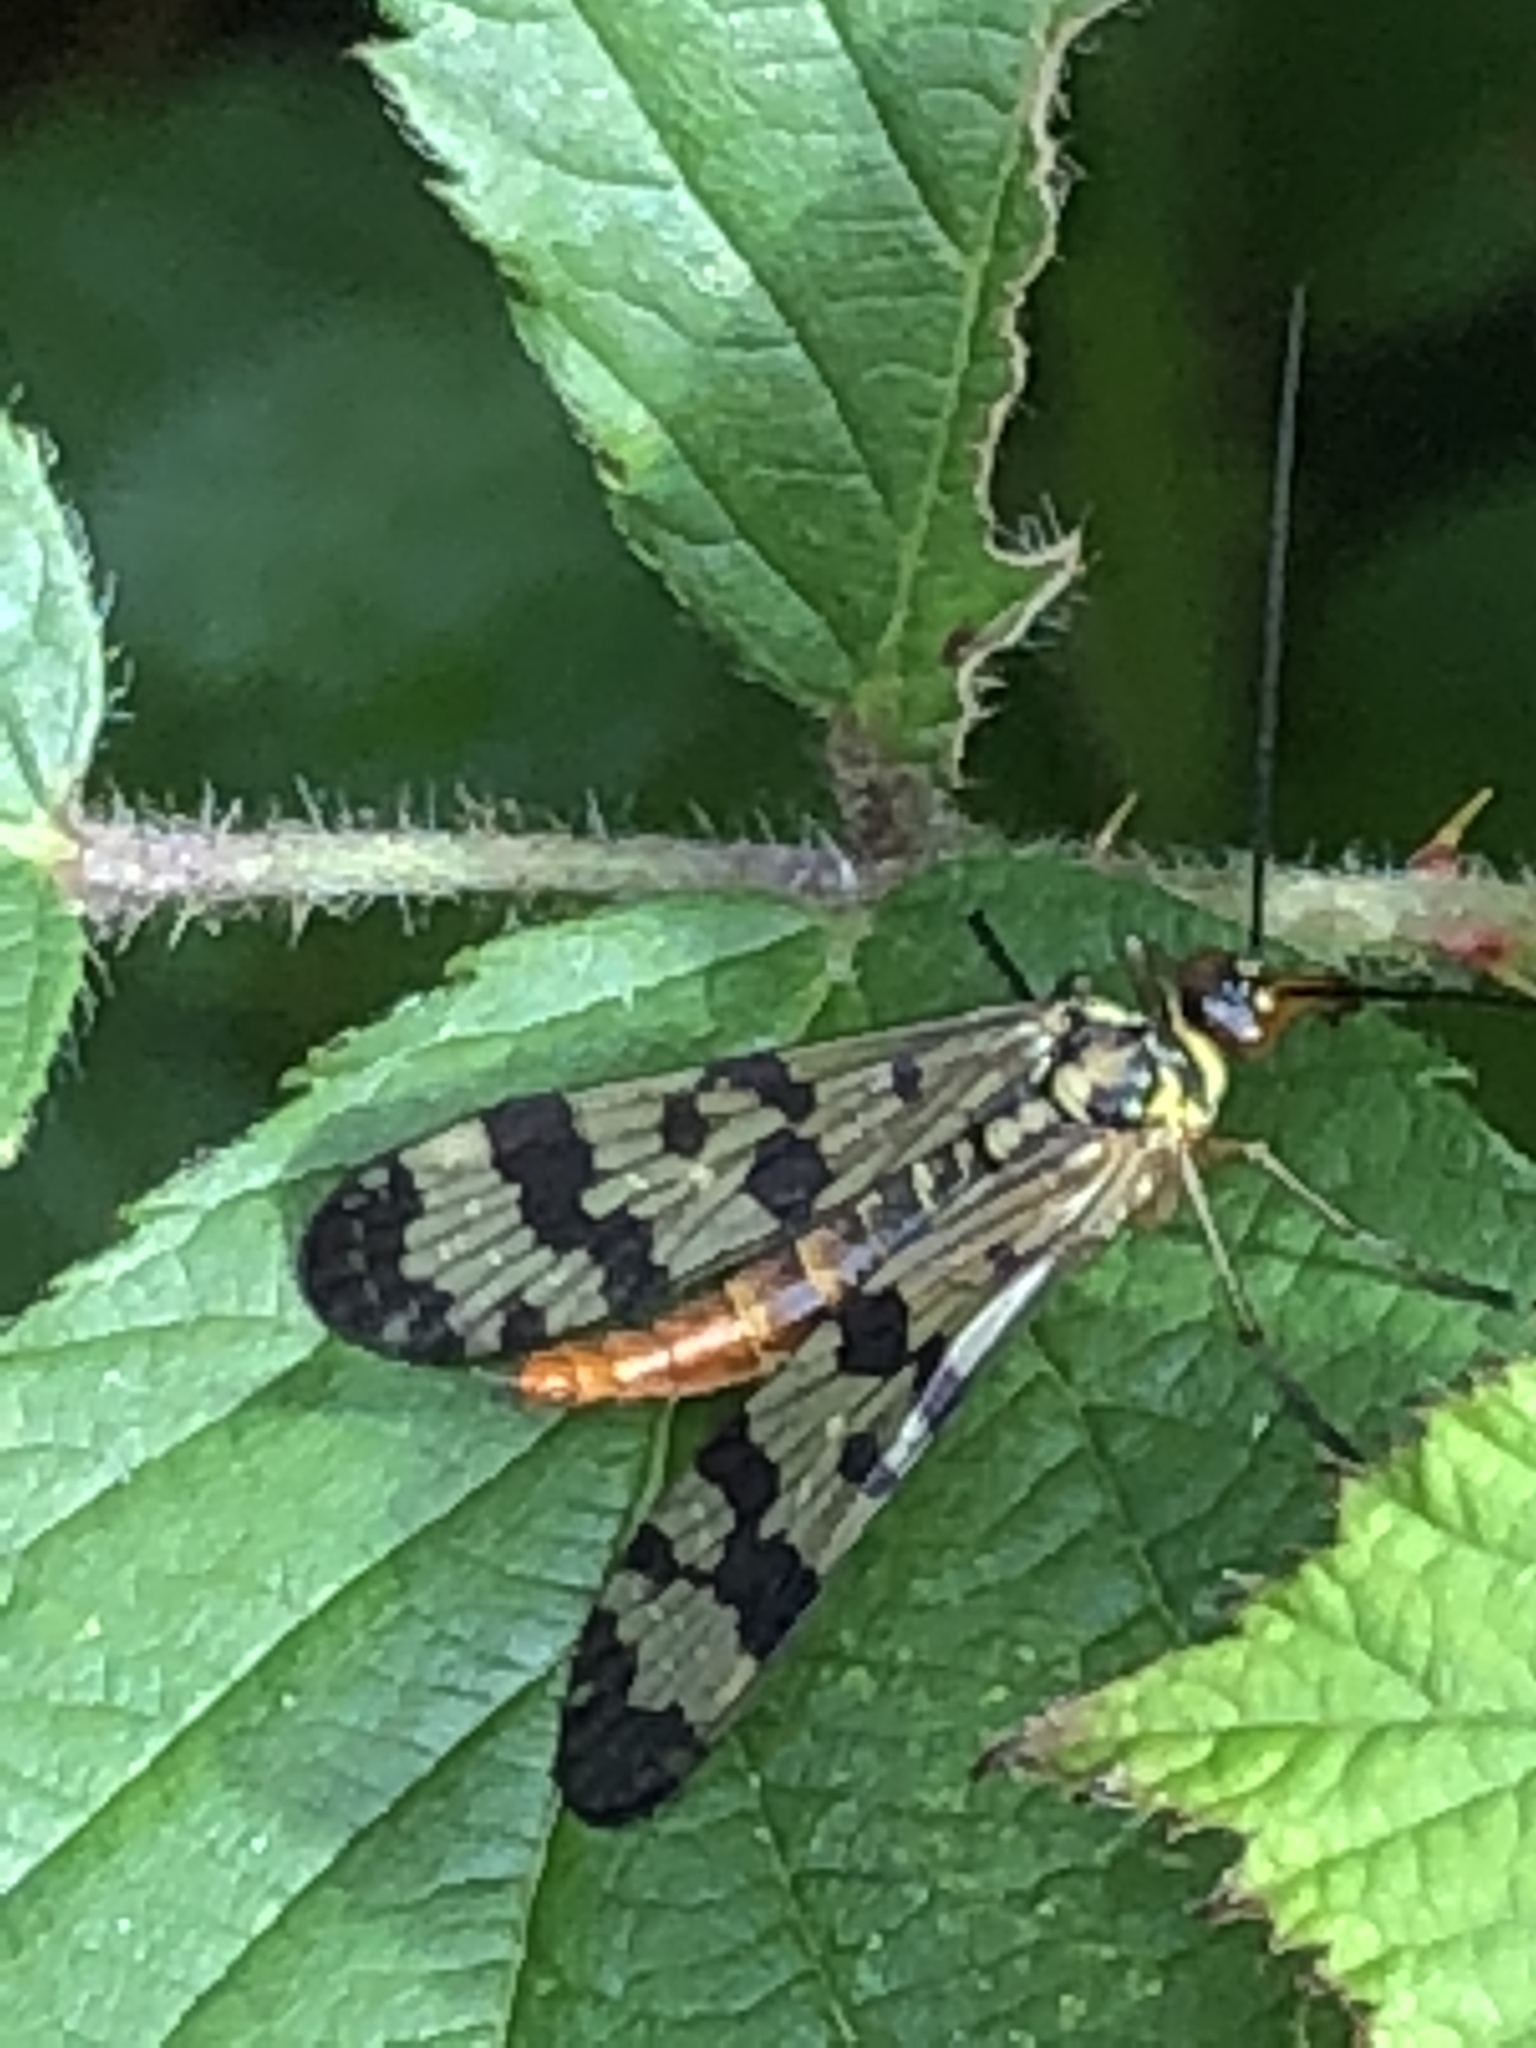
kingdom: Animalia
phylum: Arthropoda
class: Insecta
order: Mecoptera
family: Panorpidae
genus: Panorpa
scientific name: Panorpa communis
